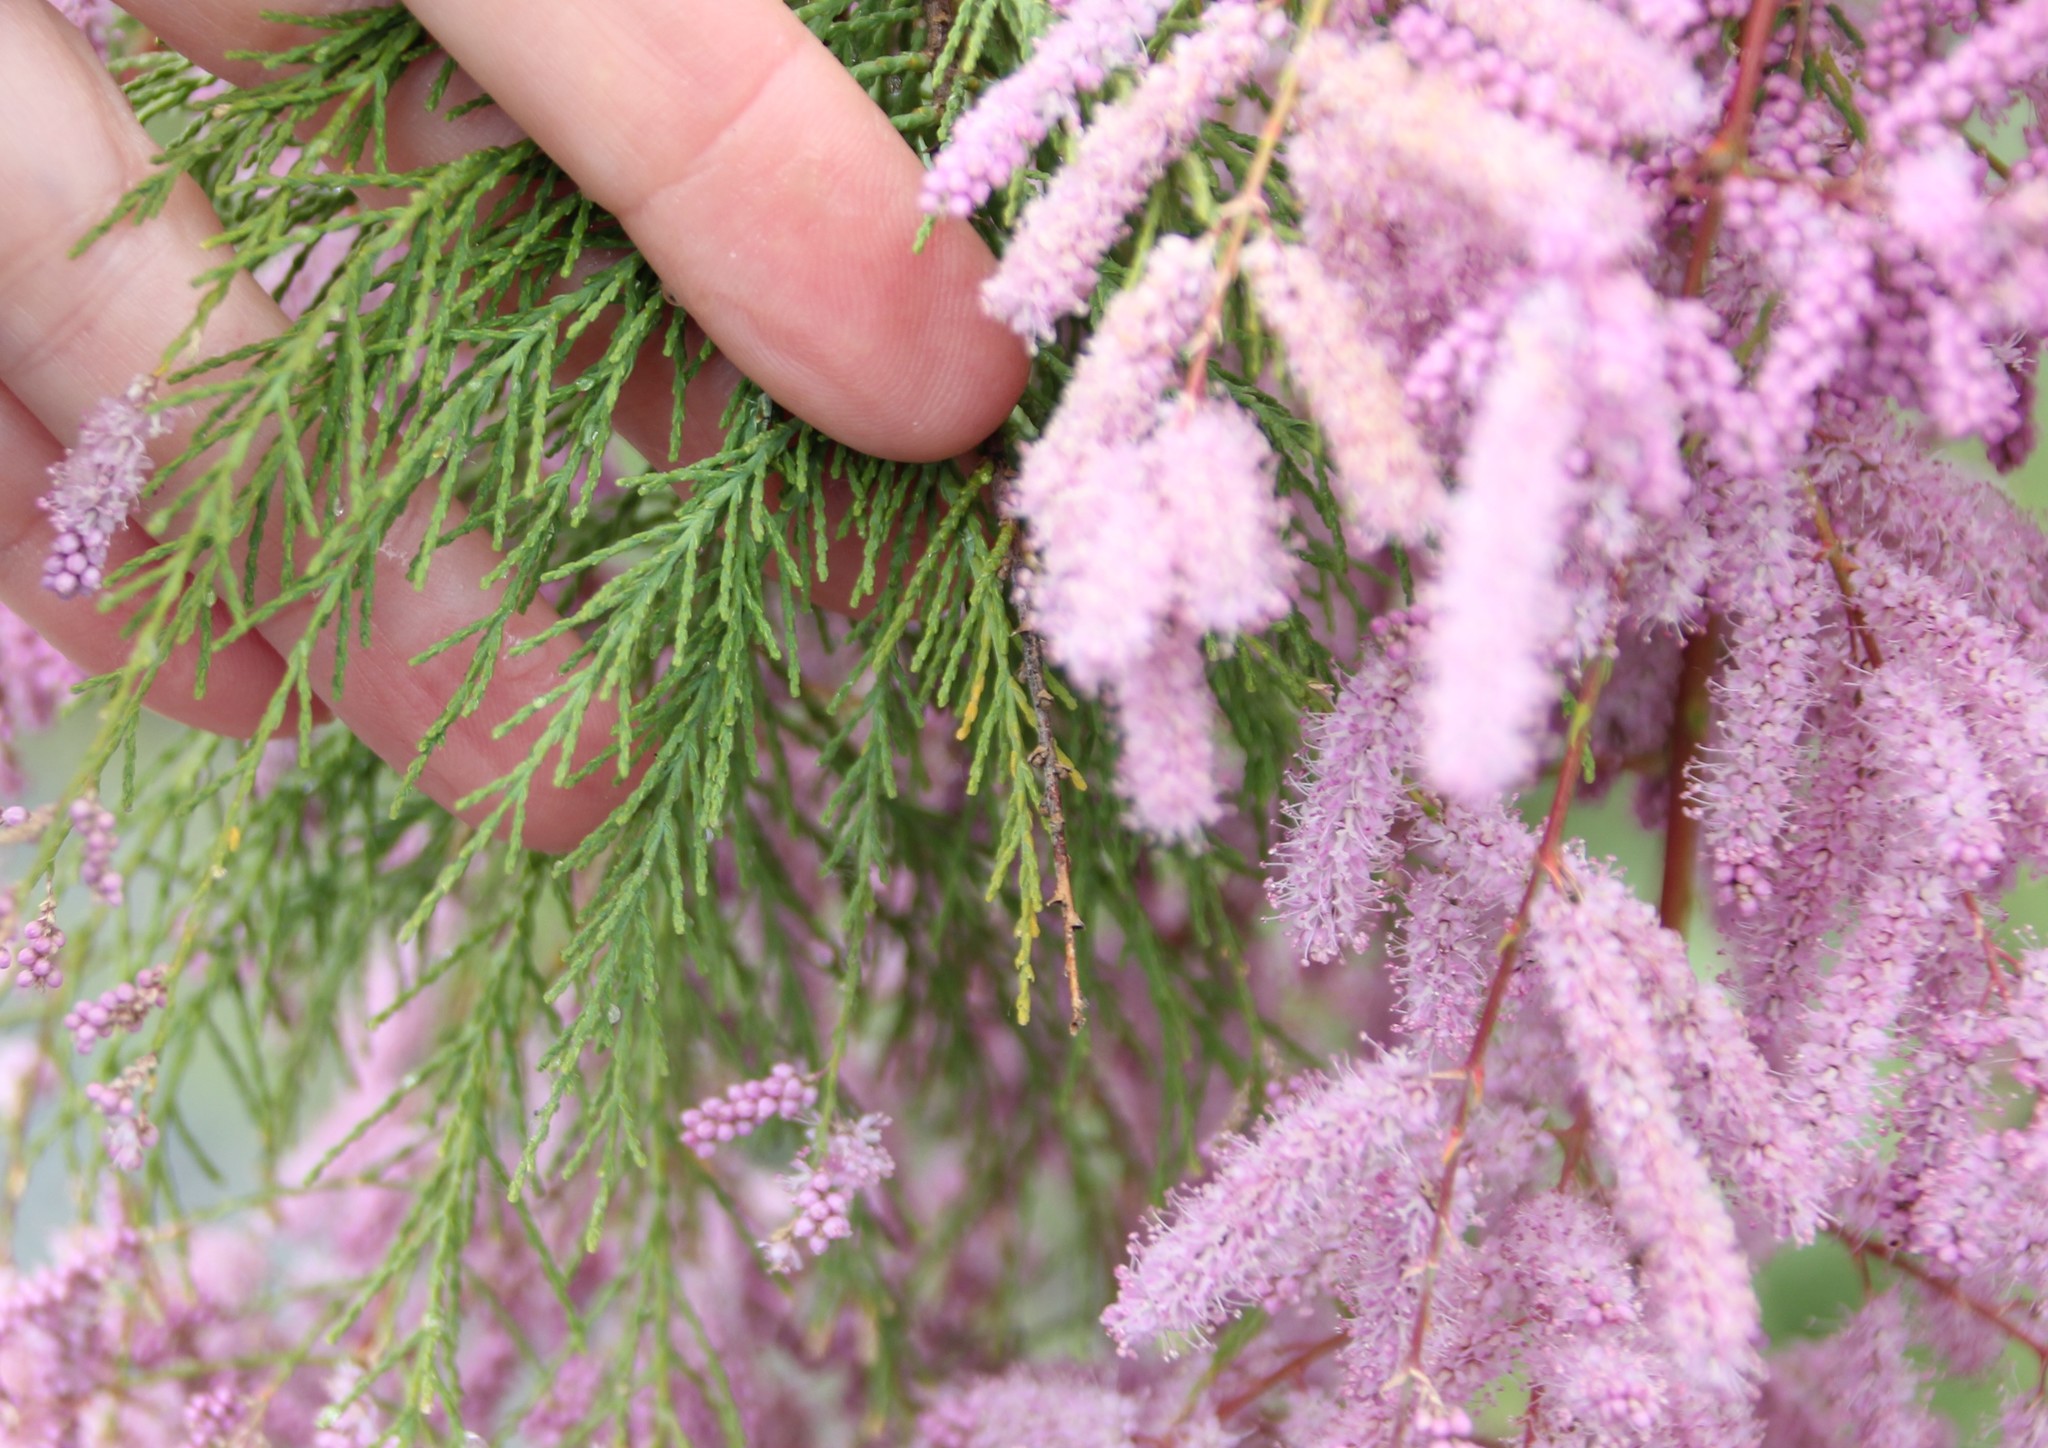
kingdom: Plantae
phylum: Tracheophyta
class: Magnoliopsida
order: Caryophyllales
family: Tamaricaceae
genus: Tamarix
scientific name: Tamarix ramosissima
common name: Pink tamarisk
